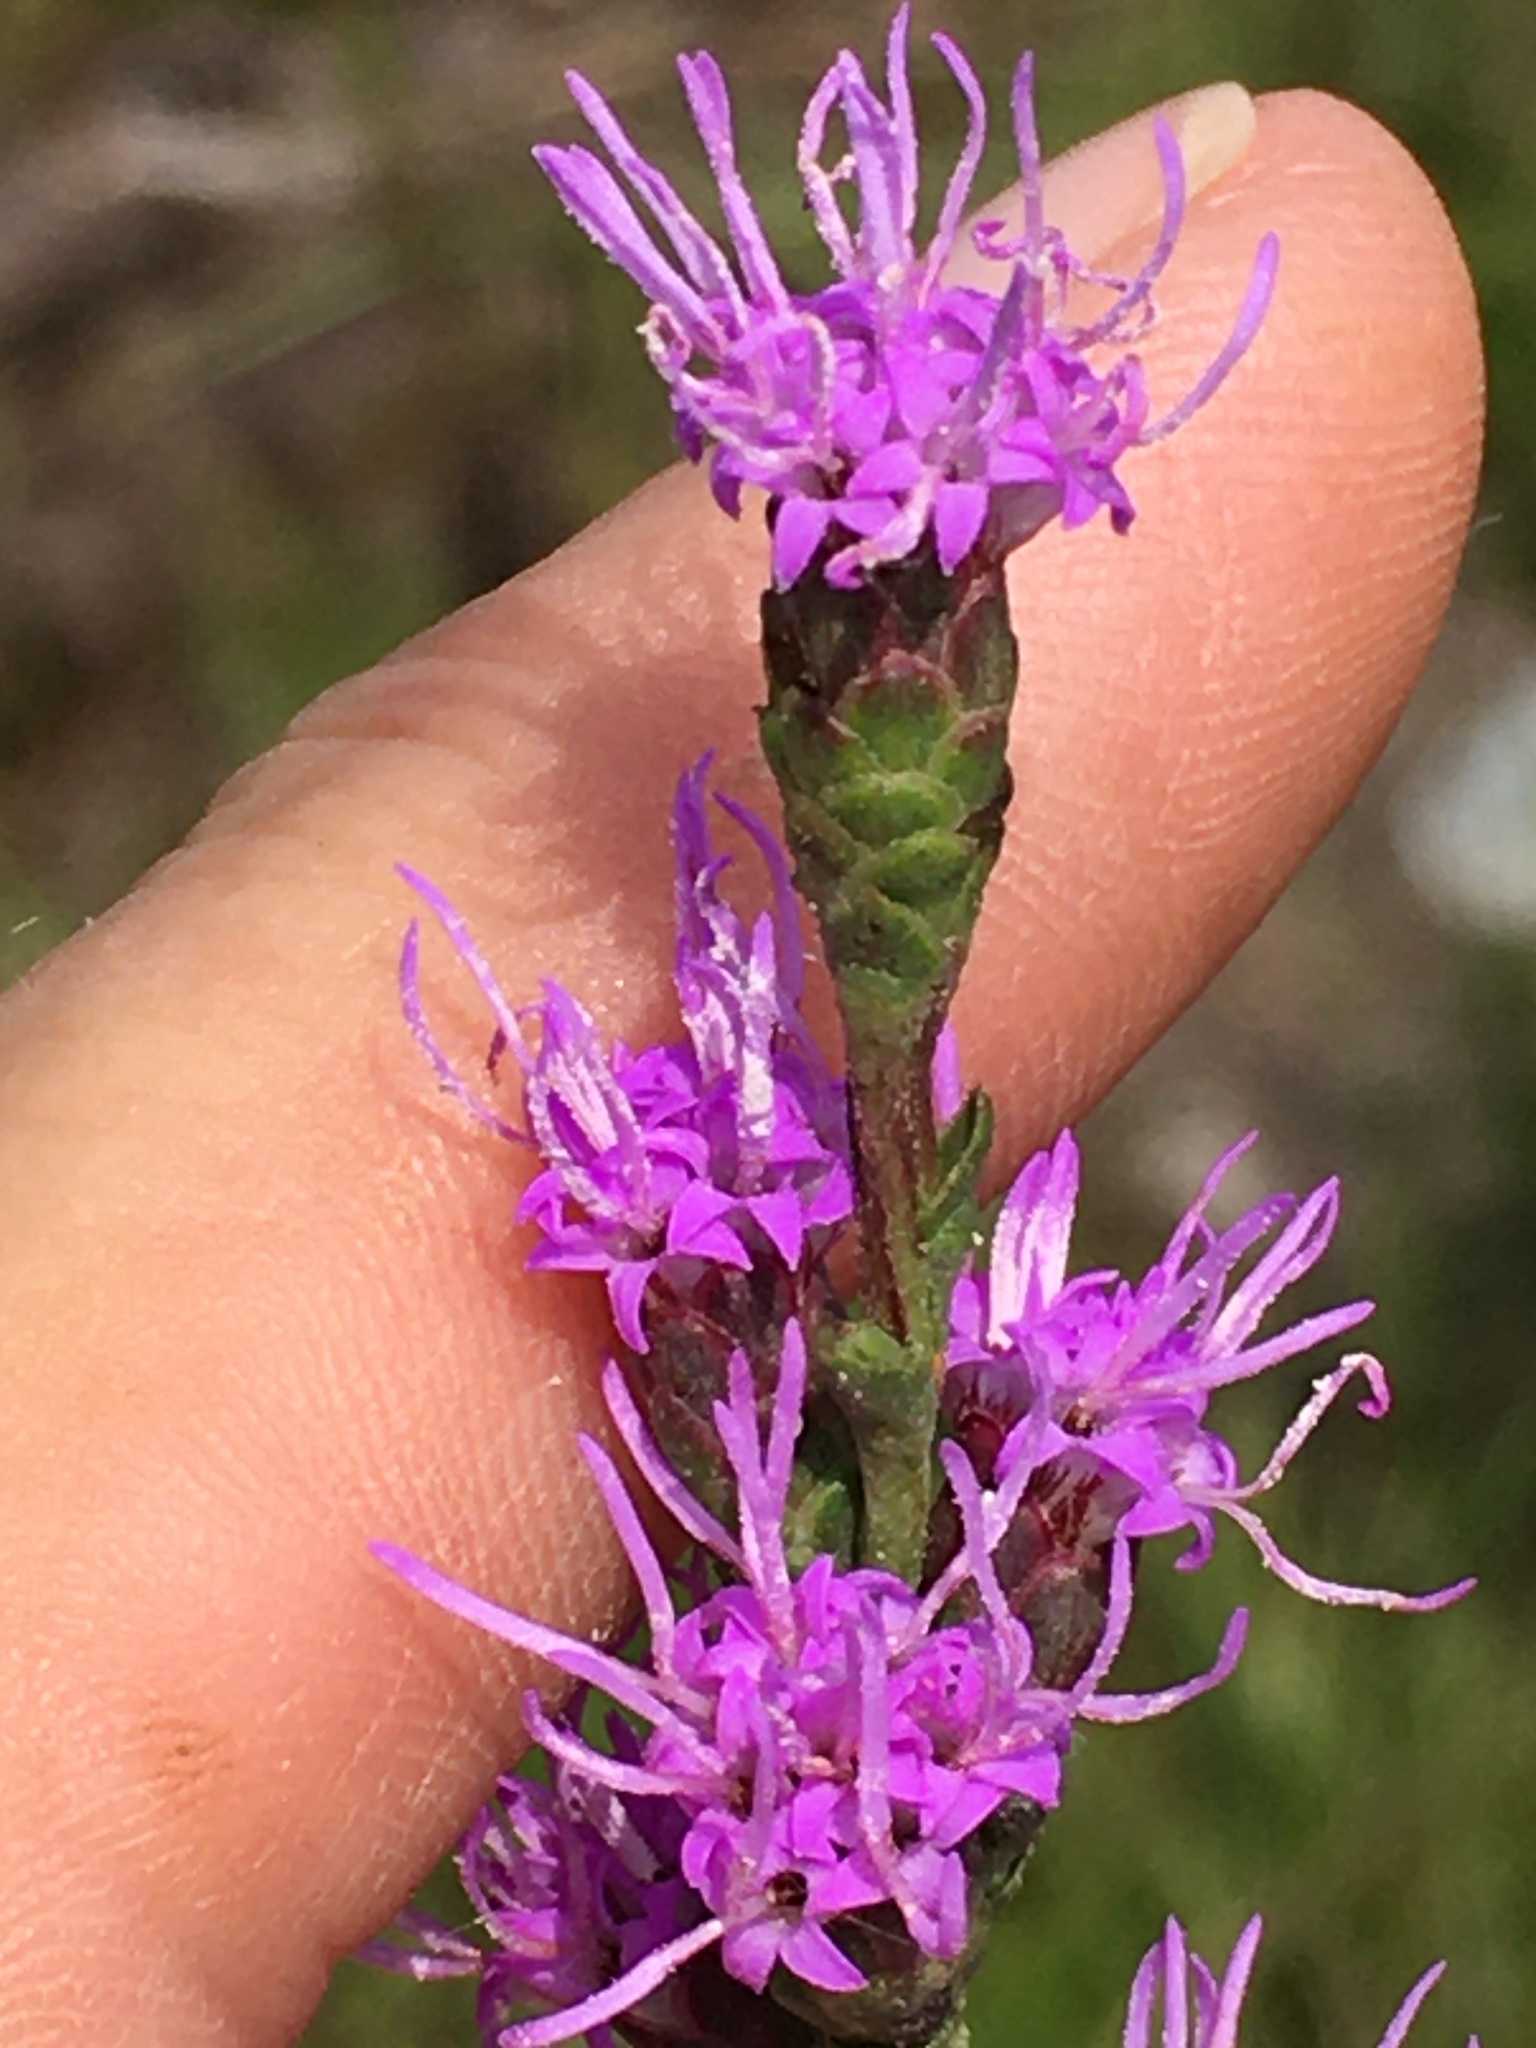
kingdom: Plantae
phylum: Tracheophyta
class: Magnoliopsida
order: Asterales
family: Asteraceae
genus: Liatris
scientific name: Liatris pilosa
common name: Grass-leaf gayfeather
